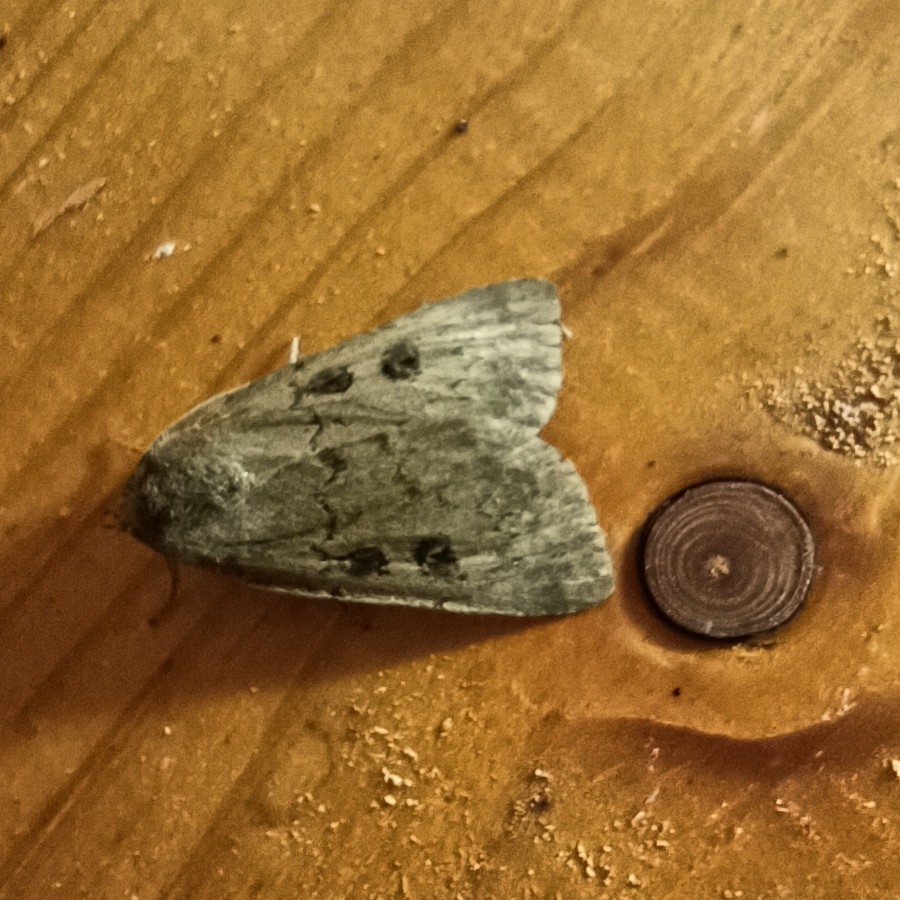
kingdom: Animalia
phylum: Arthropoda
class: Insecta
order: Lepidoptera
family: Noctuidae
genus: Graphiphora
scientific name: Graphiphora augur
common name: Double dart
